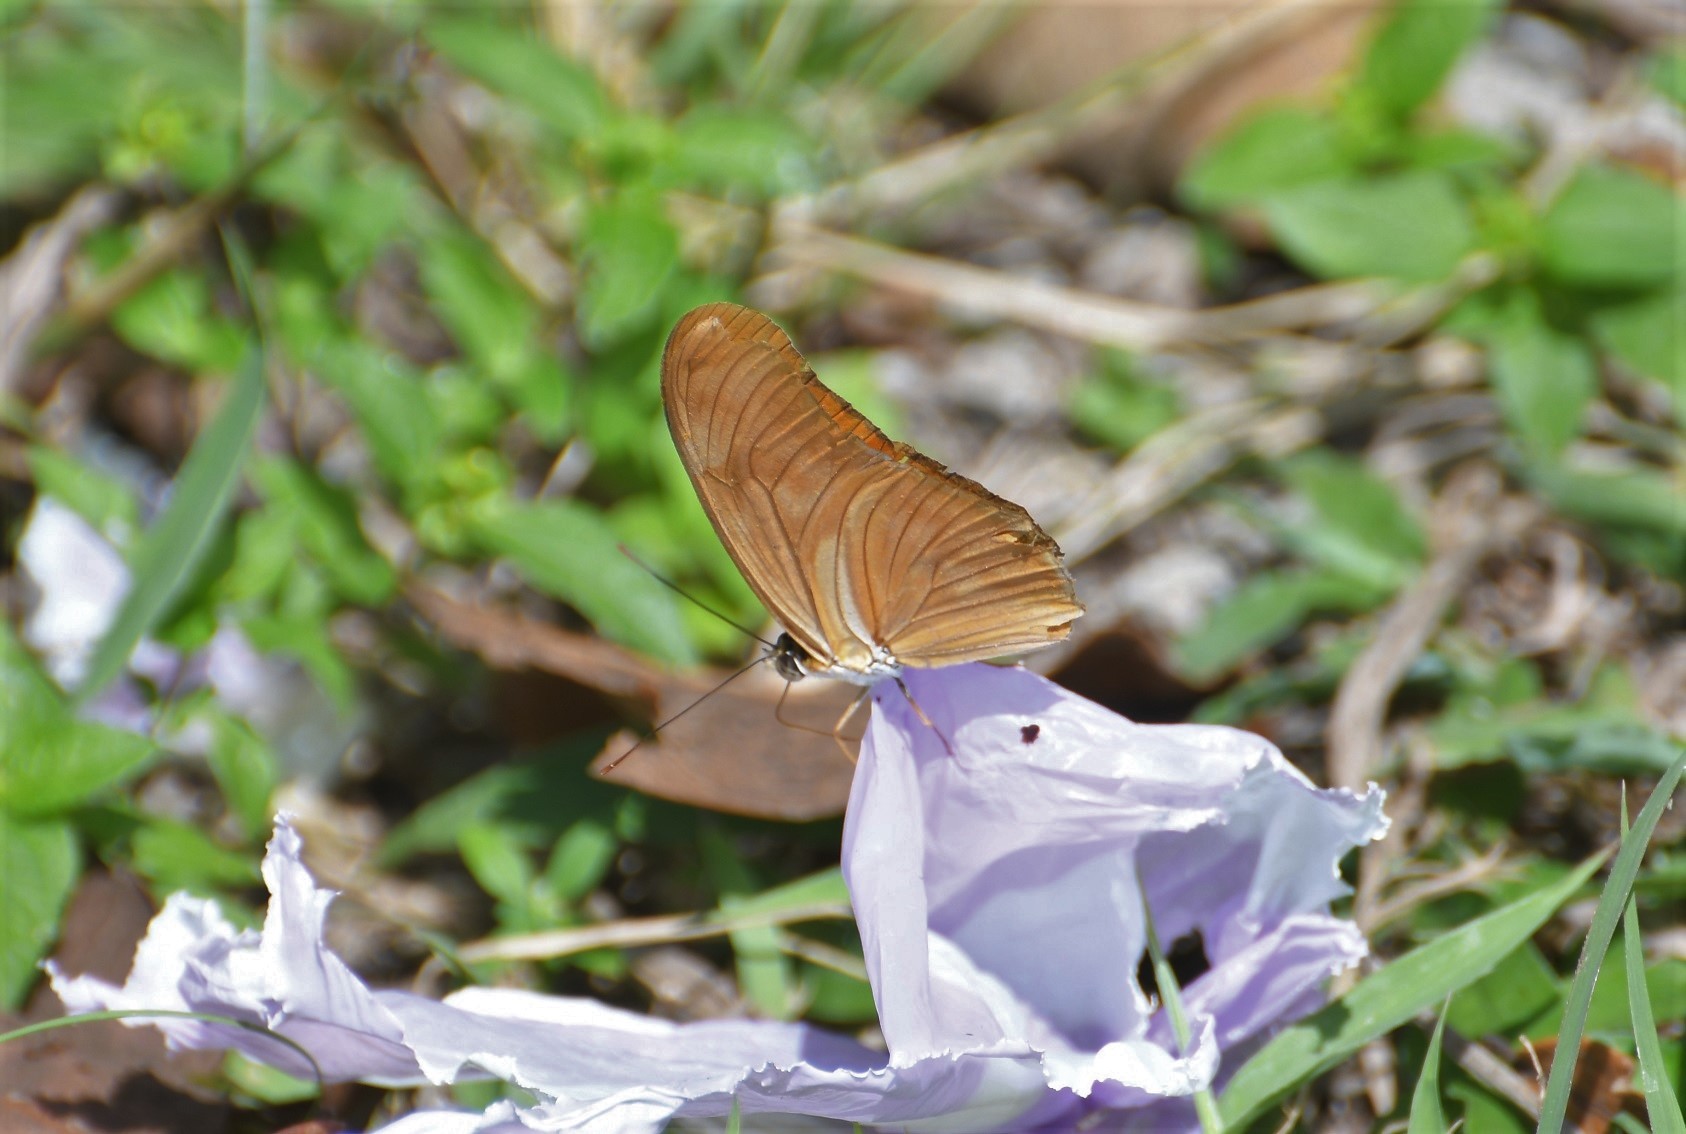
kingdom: Animalia
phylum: Arthropoda
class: Insecta
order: Lepidoptera
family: Nymphalidae
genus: Dryas
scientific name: Dryas iulia
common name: Flambeau
